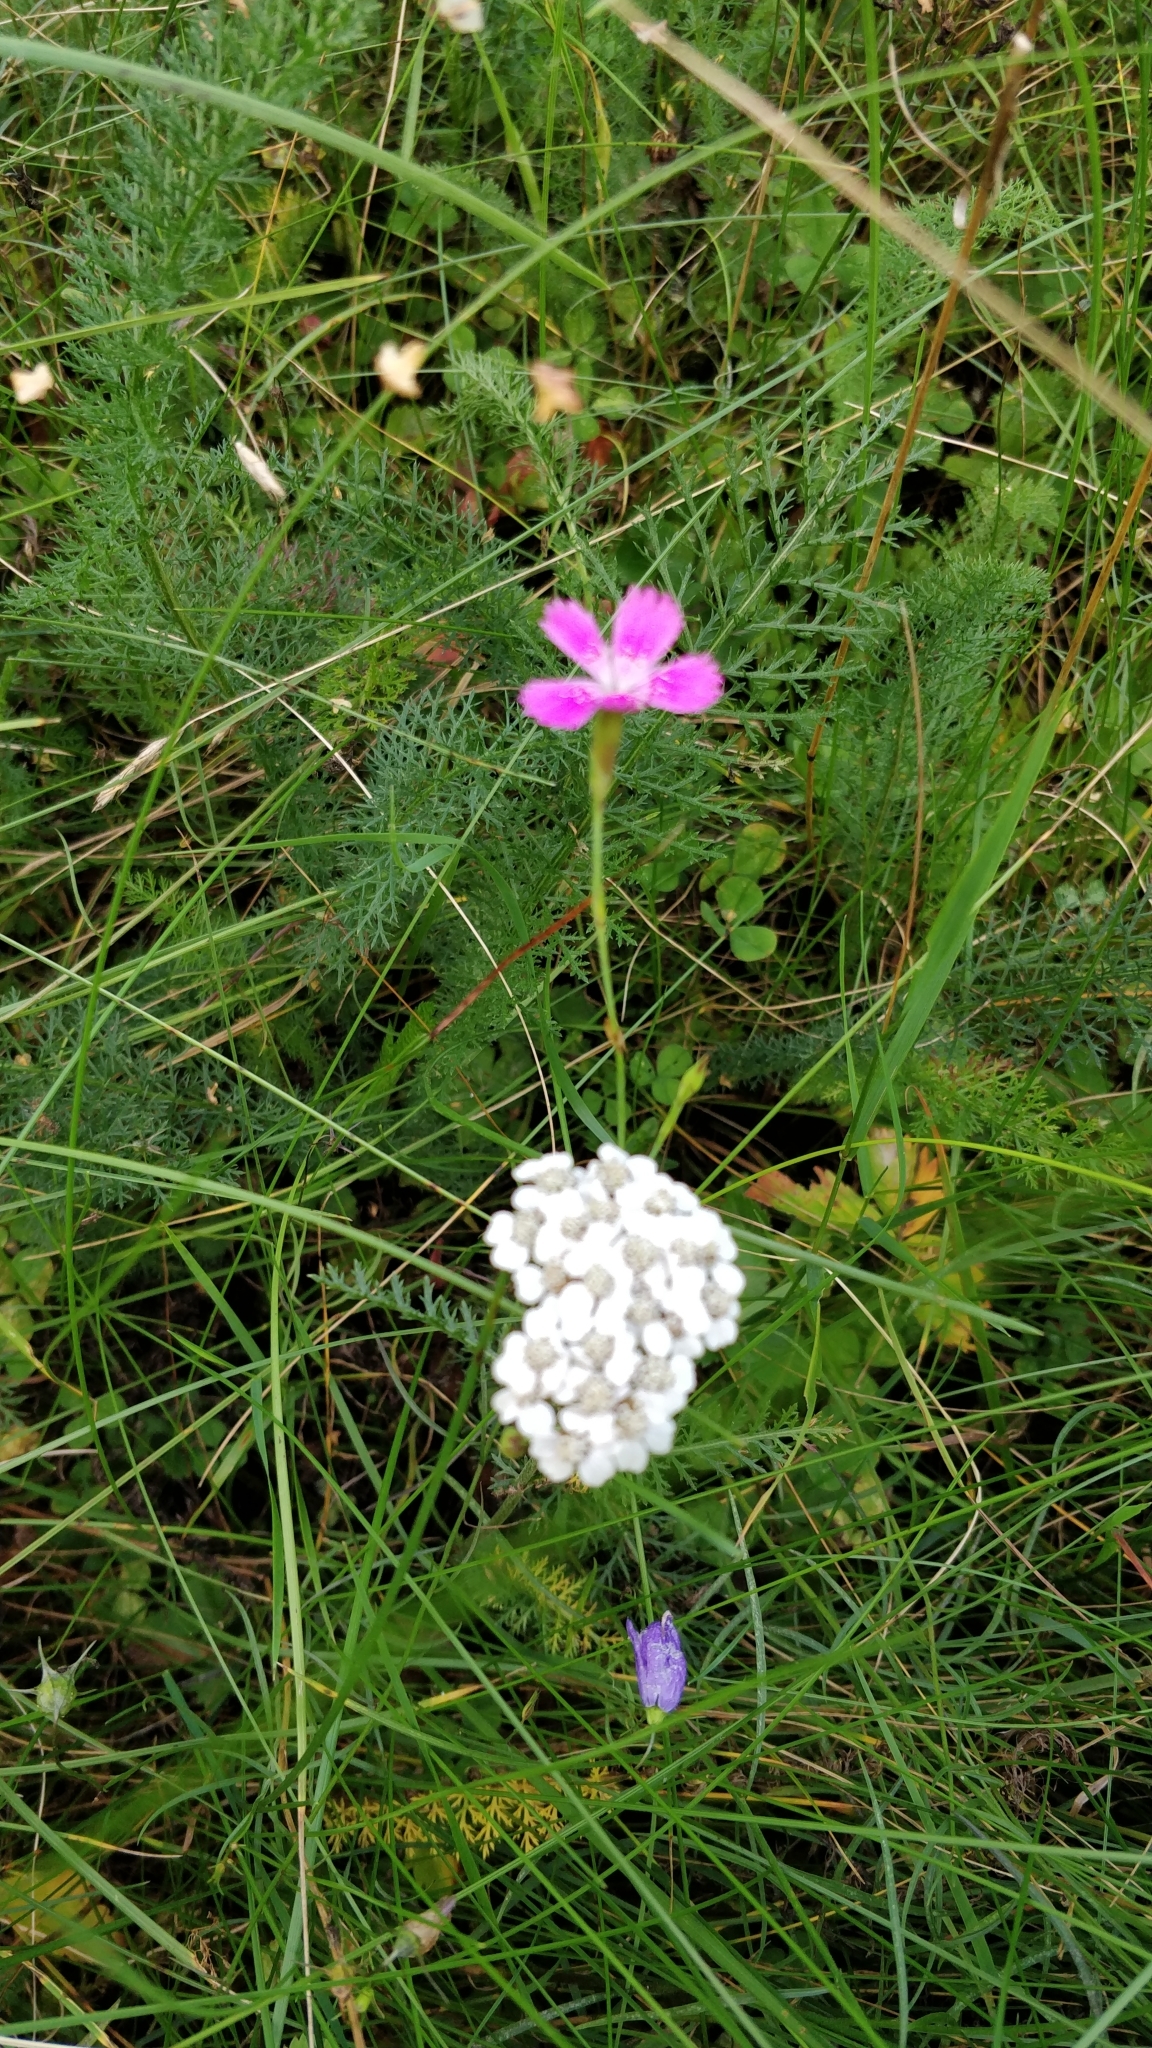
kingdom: Plantae
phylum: Tracheophyta
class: Magnoliopsida
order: Caryophyllales
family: Caryophyllaceae
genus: Dianthus
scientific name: Dianthus deltoides
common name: Maiden pink
